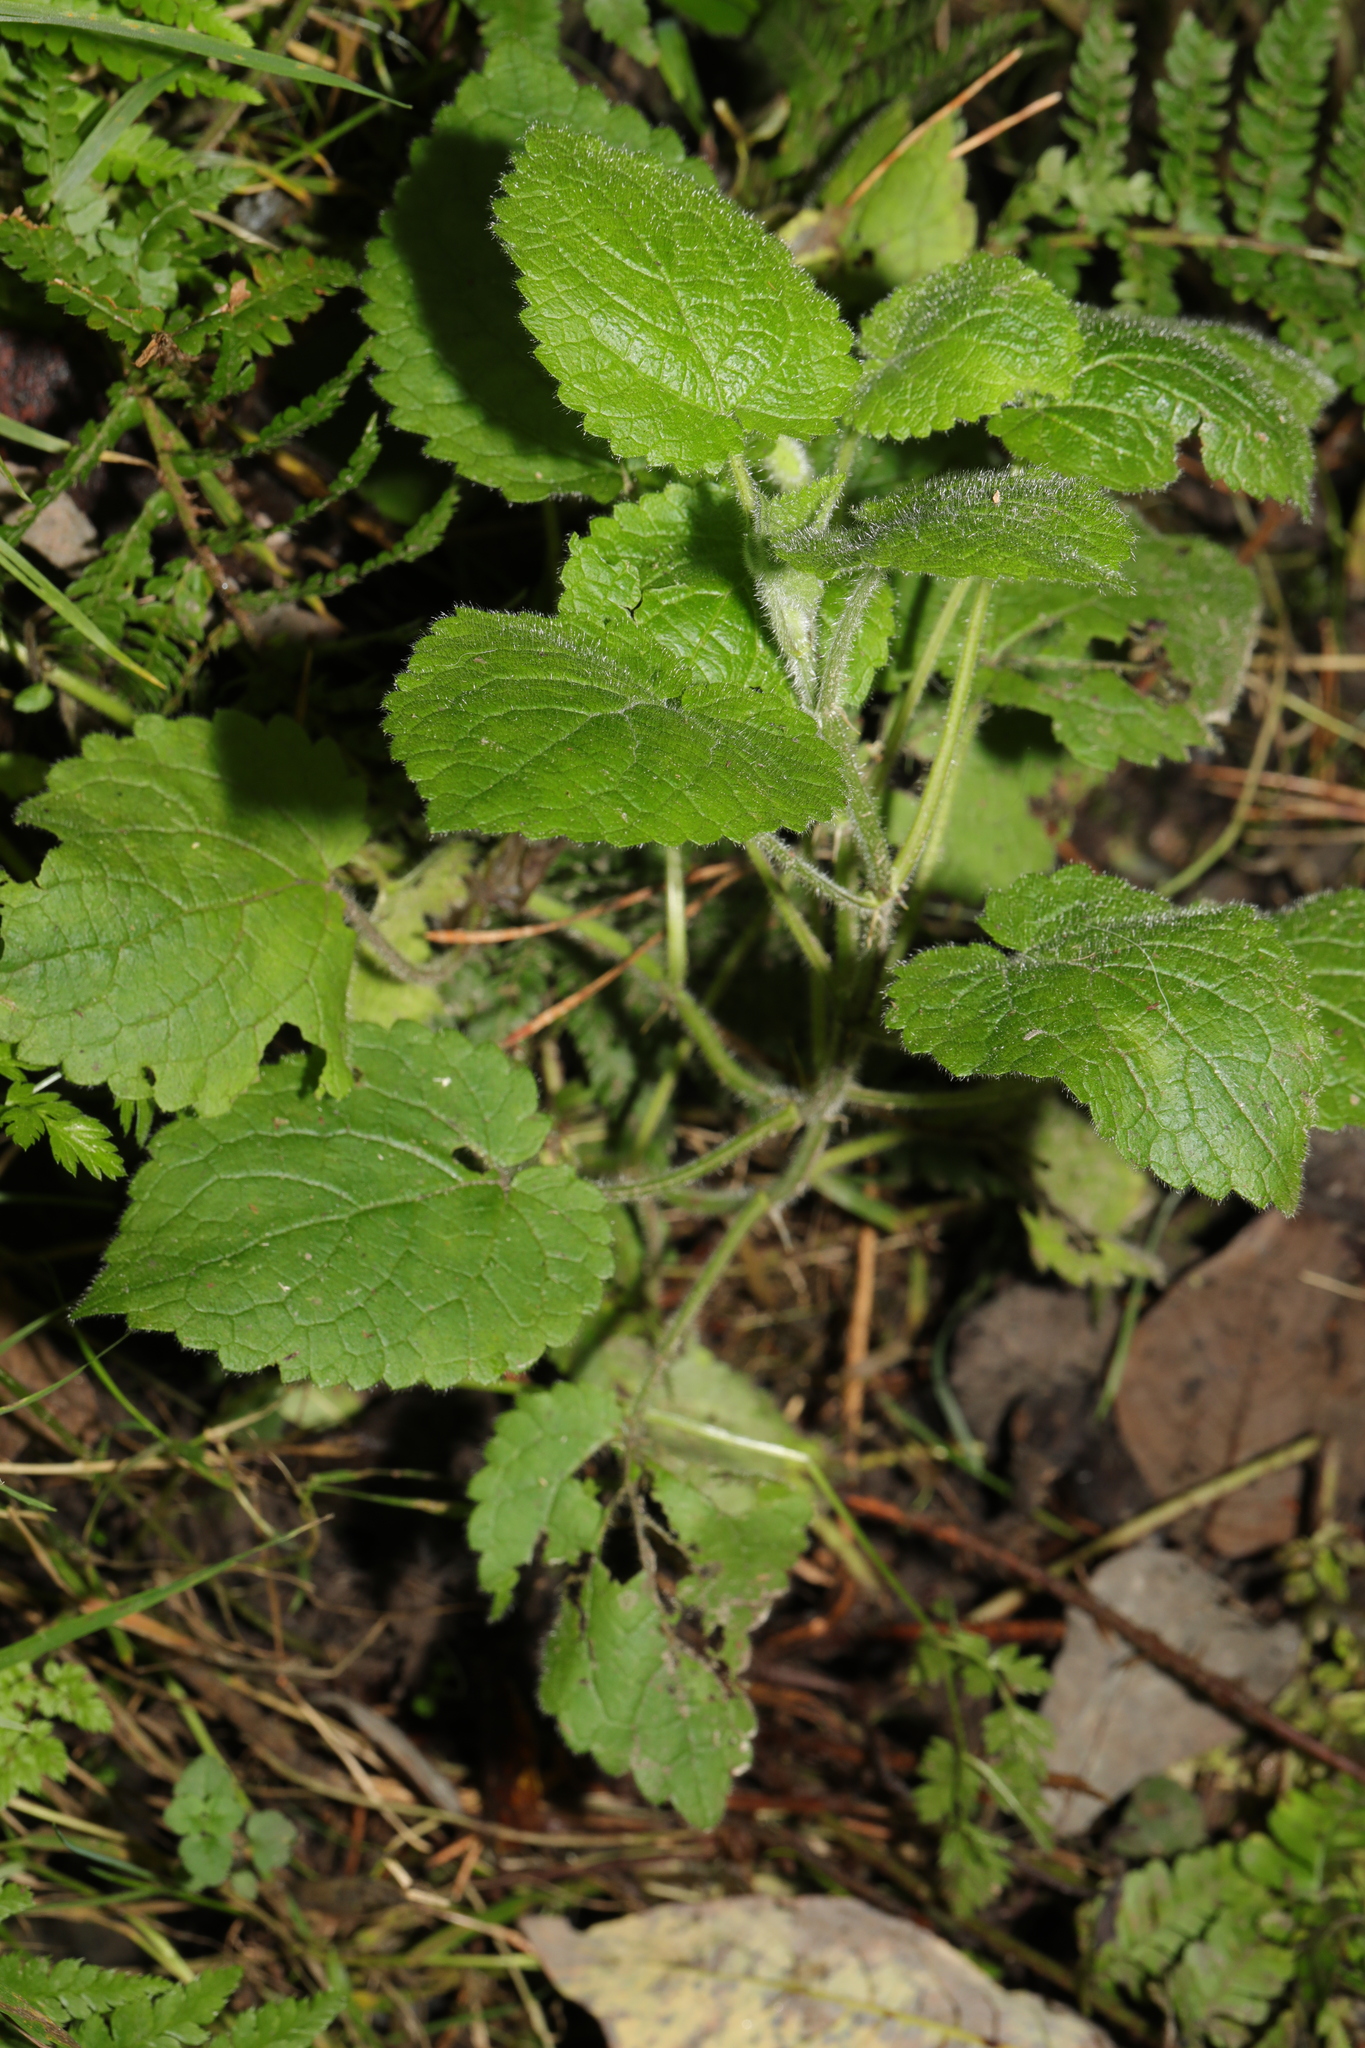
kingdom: Plantae
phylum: Tracheophyta
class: Magnoliopsida
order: Lamiales
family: Lamiaceae
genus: Stachys
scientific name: Stachys sylvatica
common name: Hedge woundwort
